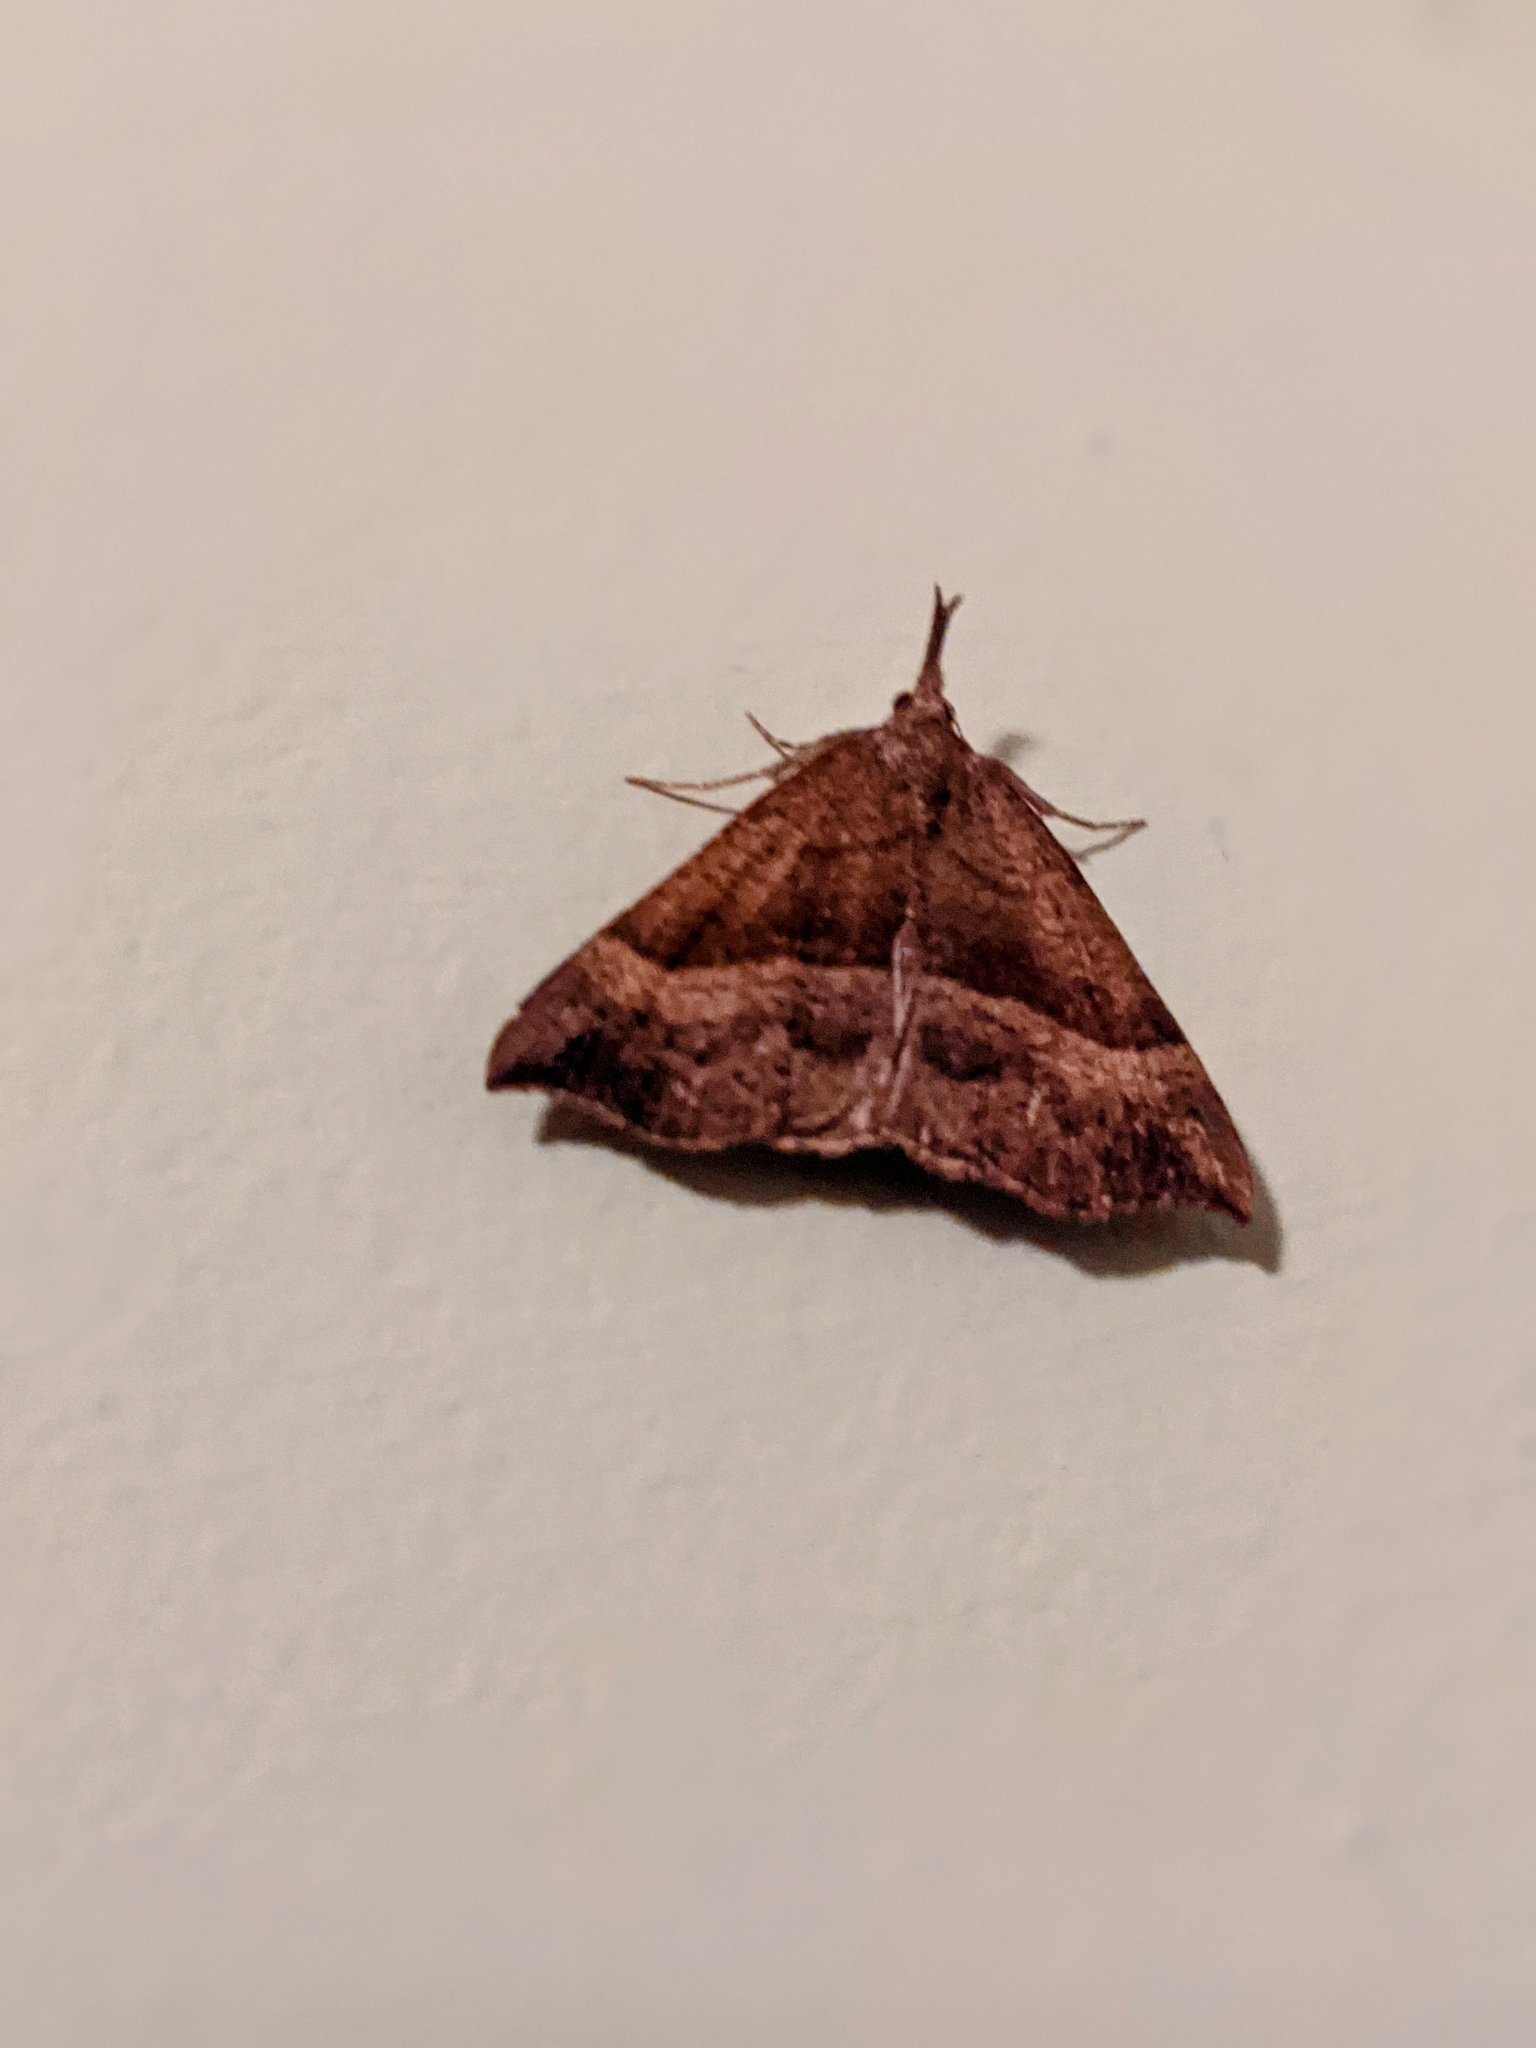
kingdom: Animalia
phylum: Arthropoda
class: Insecta
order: Lepidoptera
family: Erebidae
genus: Hypena
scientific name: Hypena proboscidalis
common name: Snout
